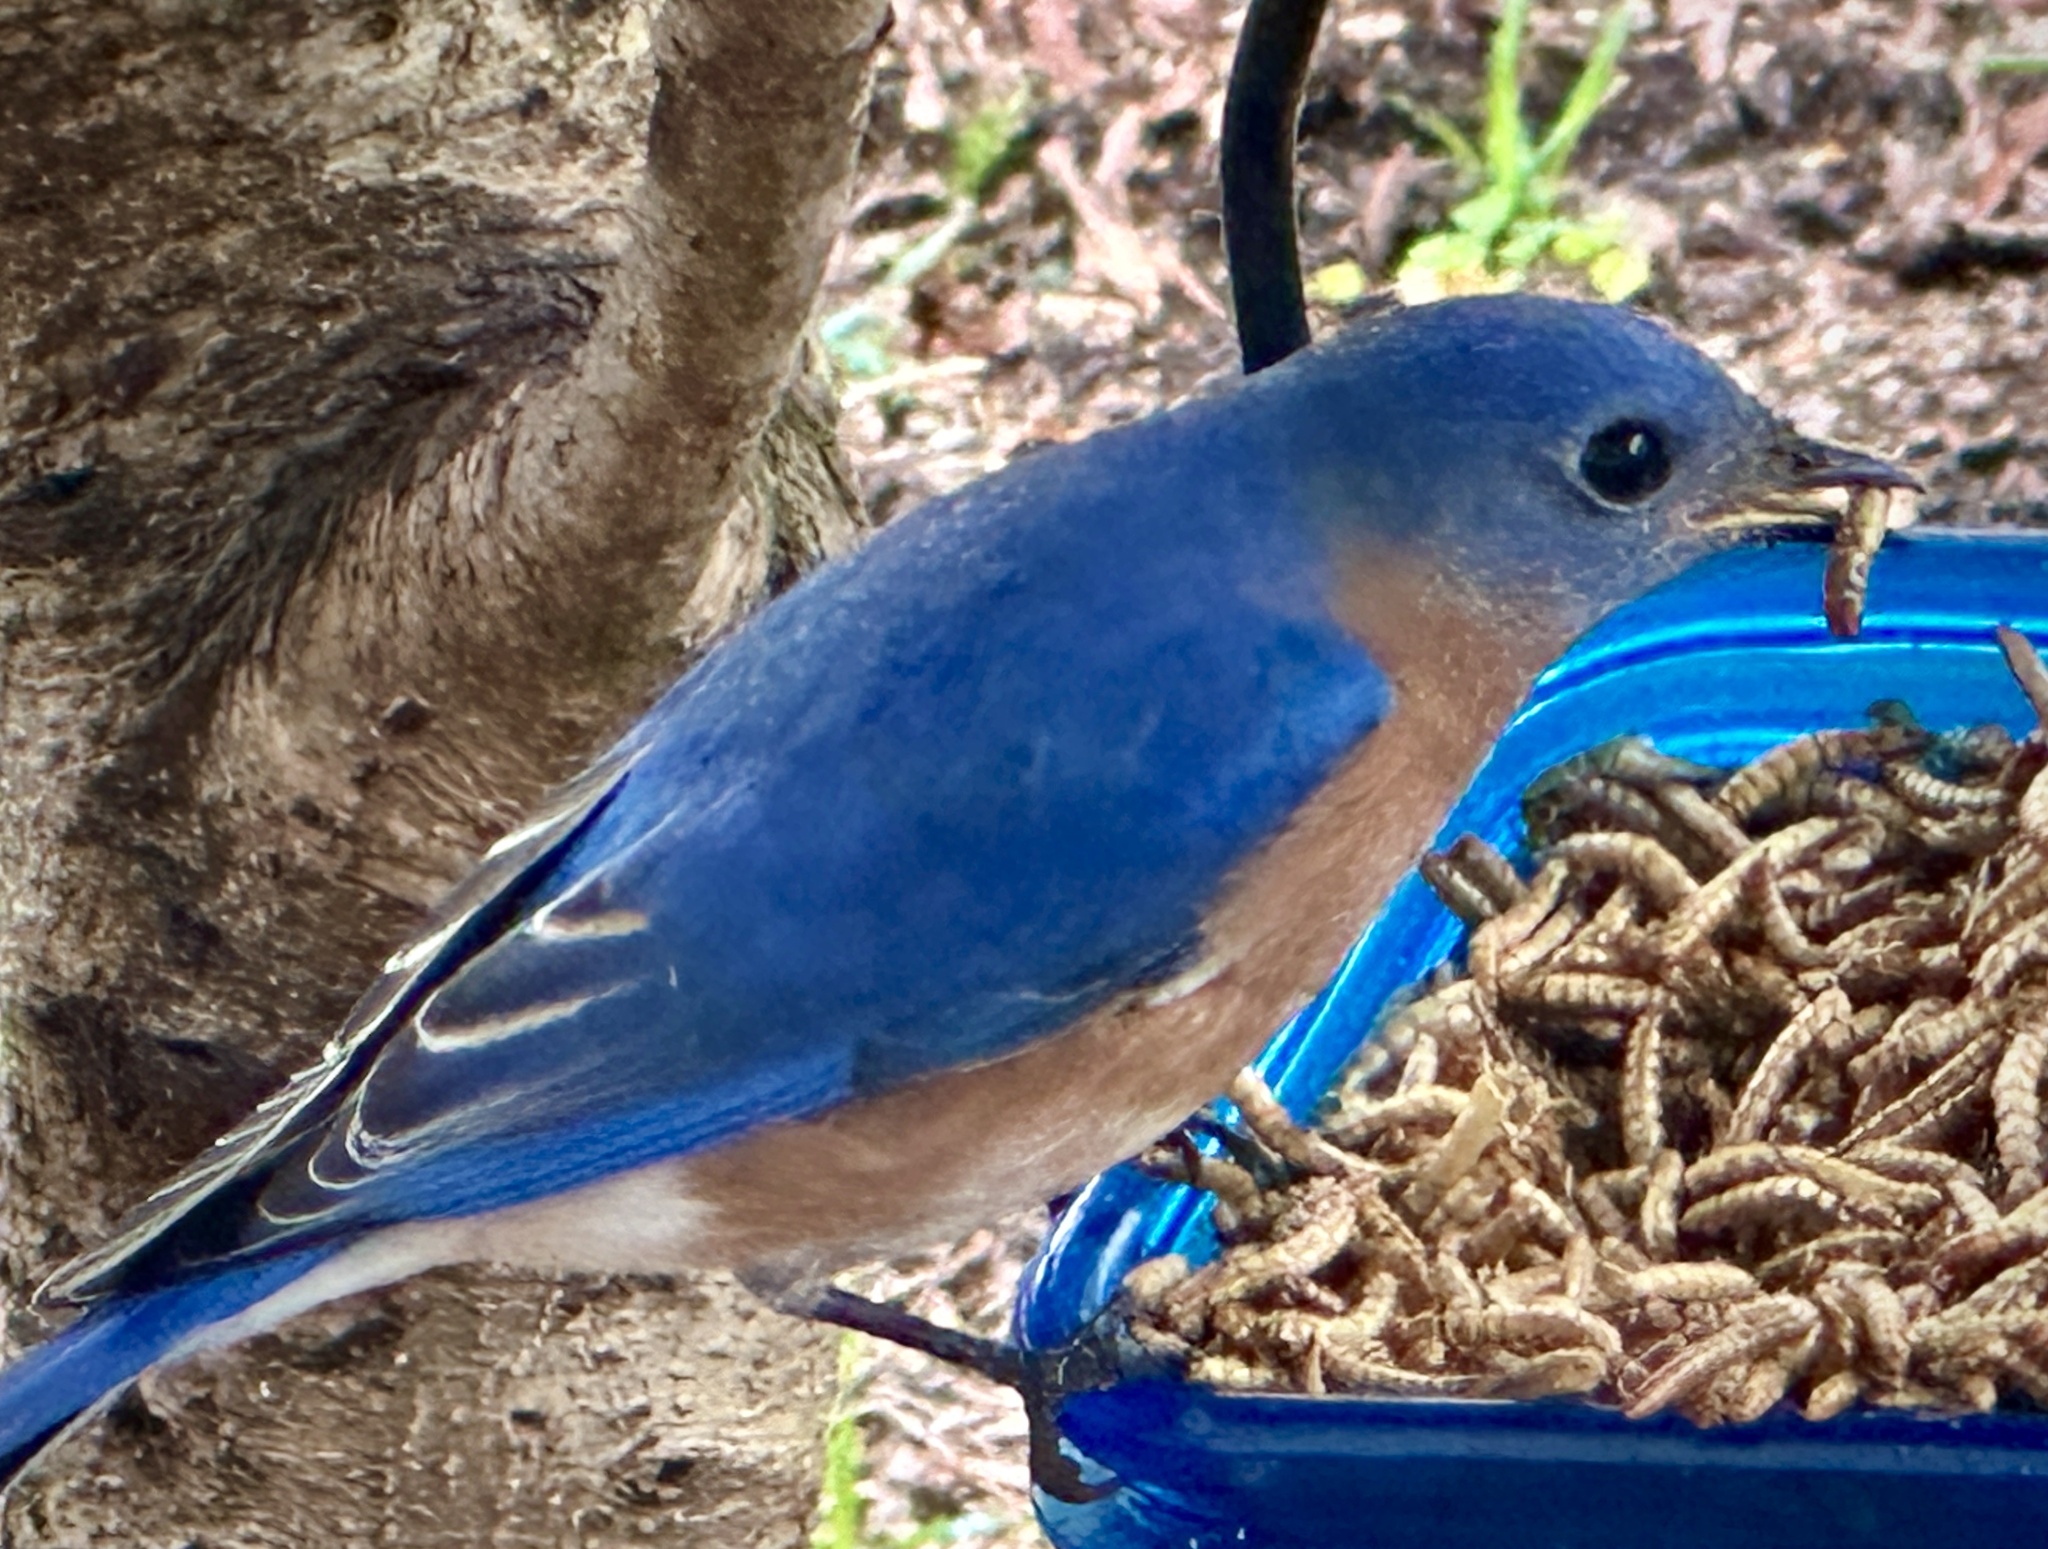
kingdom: Animalia
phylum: Chordata
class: Aves
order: Passeriformes
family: Turdidae
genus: Sialia
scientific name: Sialia sialis
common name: Eastern bluebird
